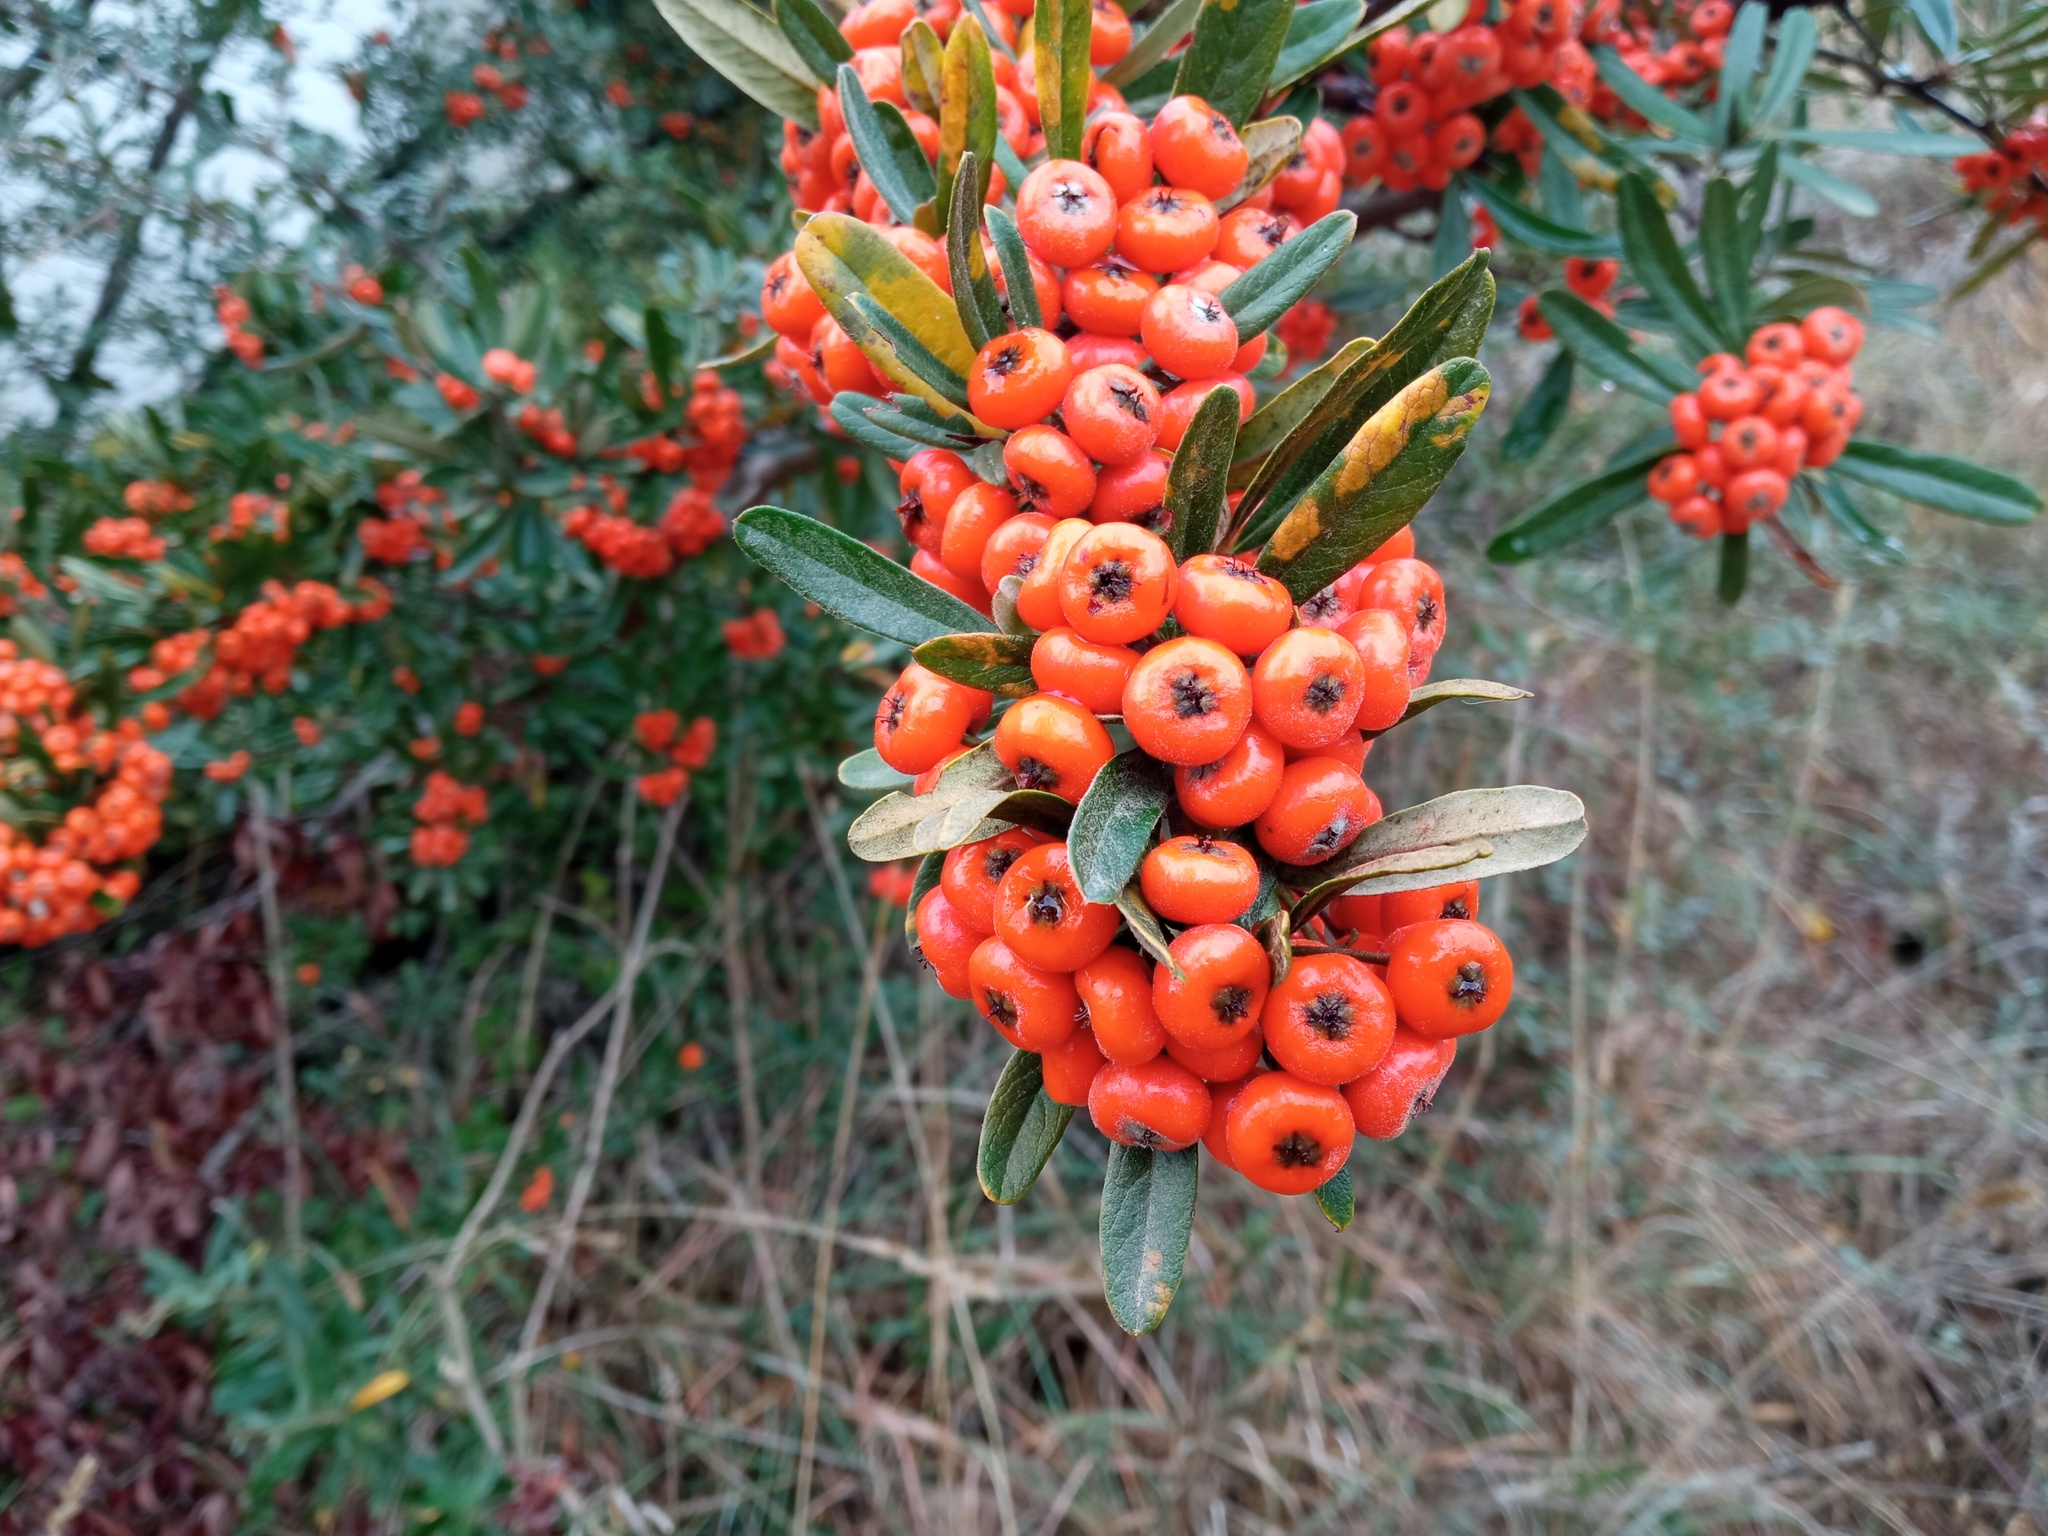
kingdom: Plantae
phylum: Tracheophyta
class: Magnoliopsida
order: Rosales
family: Rosaceae
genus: Pyracantha
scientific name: Pyracantha angustifolia
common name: Narrowleaf firethorn
